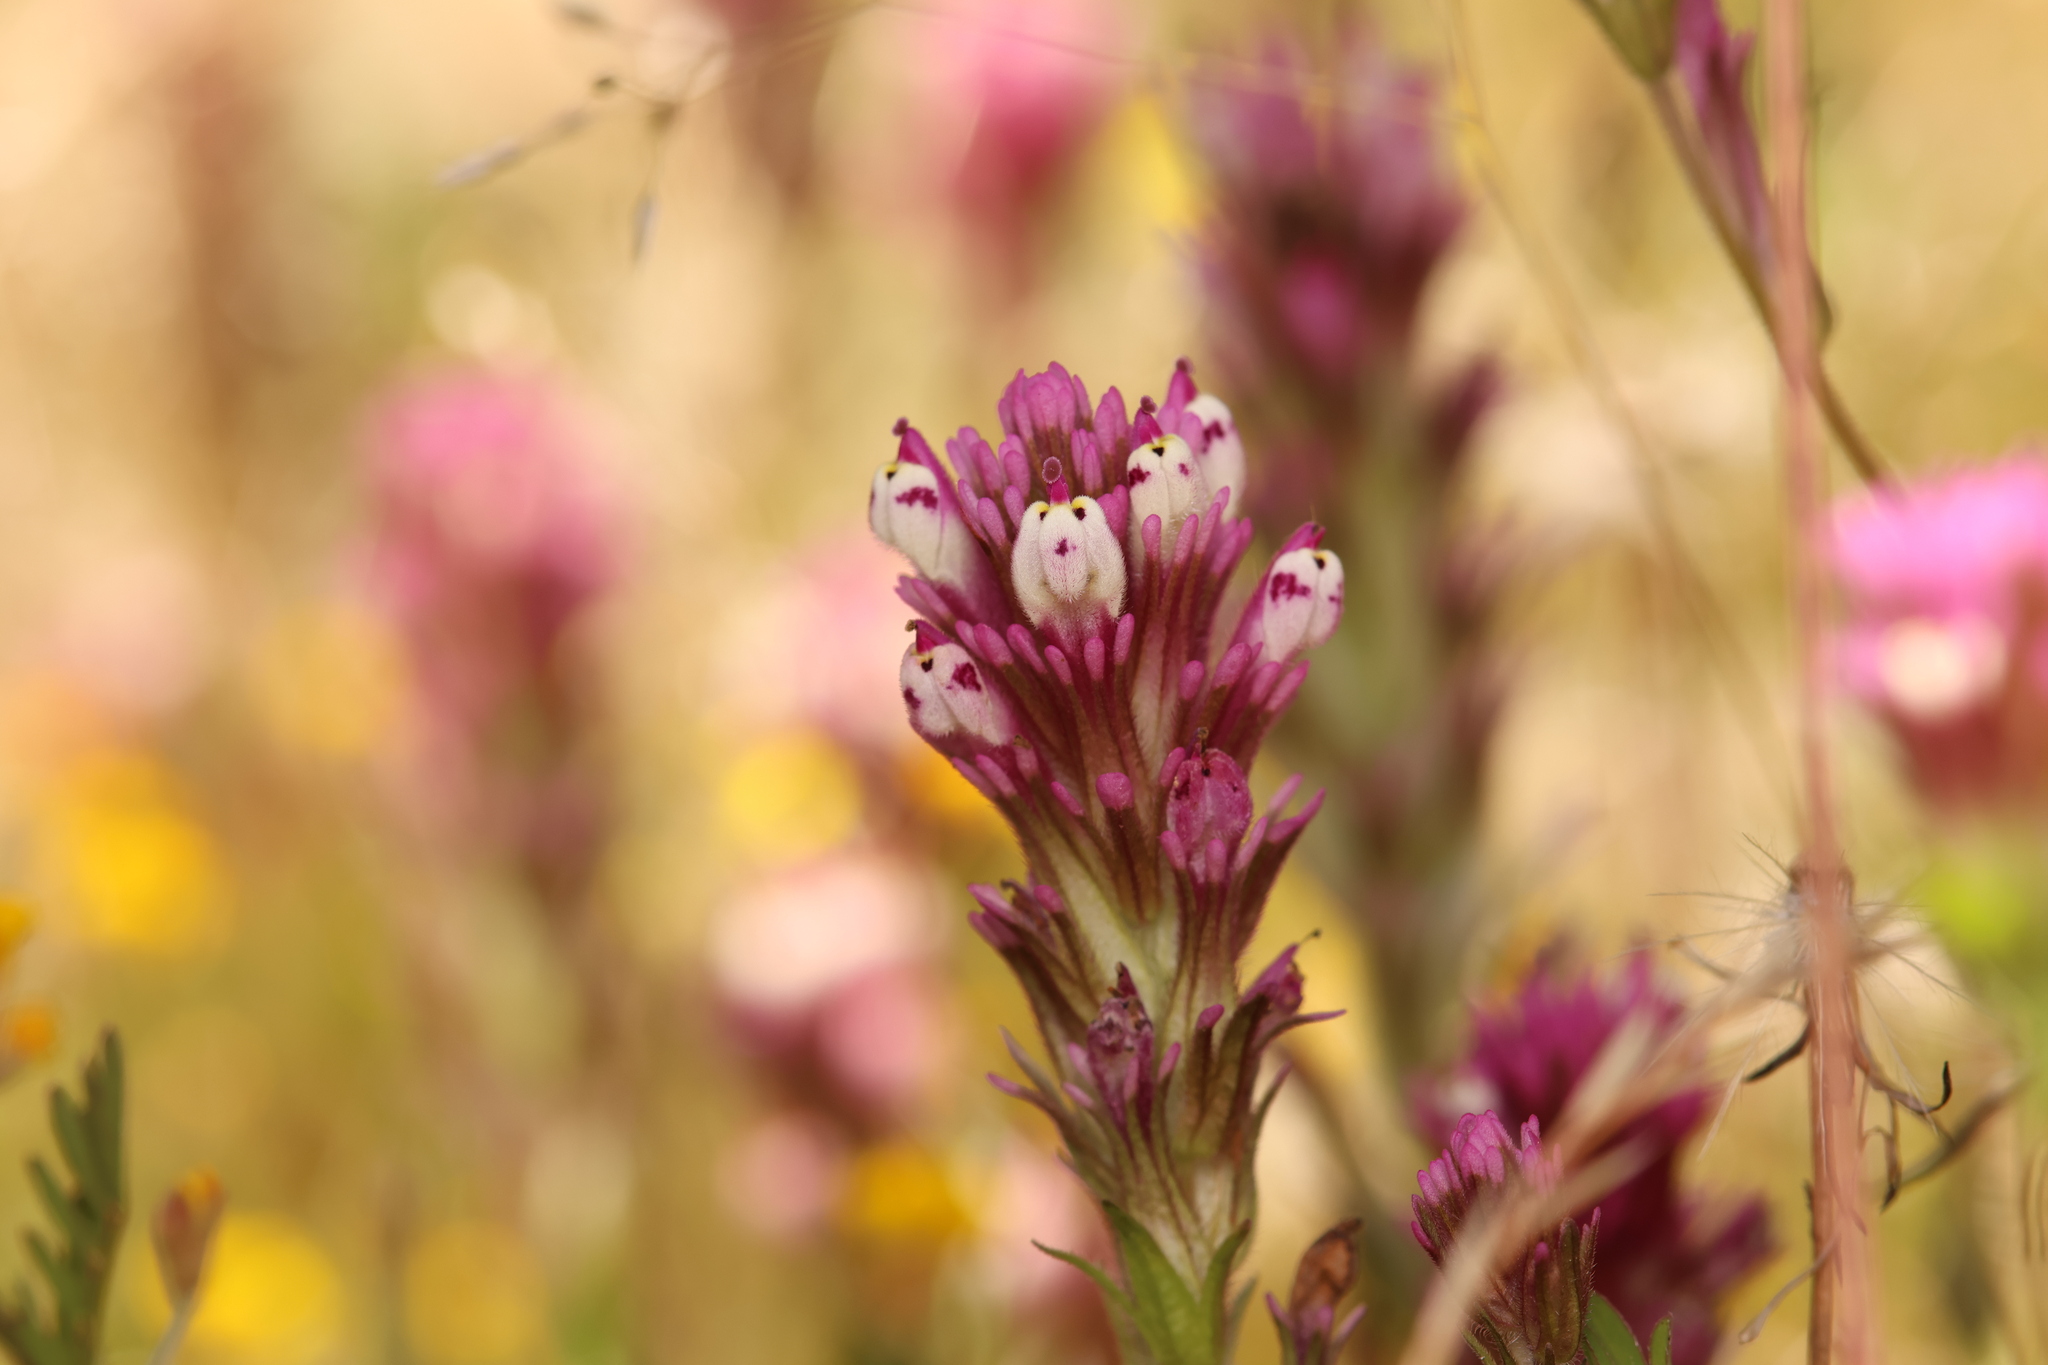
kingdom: Plantae
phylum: Tracheophyta
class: Magnoliopsida
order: Lamiales
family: Orobanchaceae
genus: Castilleja
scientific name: Castilleja densiflora
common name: Dense-flower indian paintbrush
